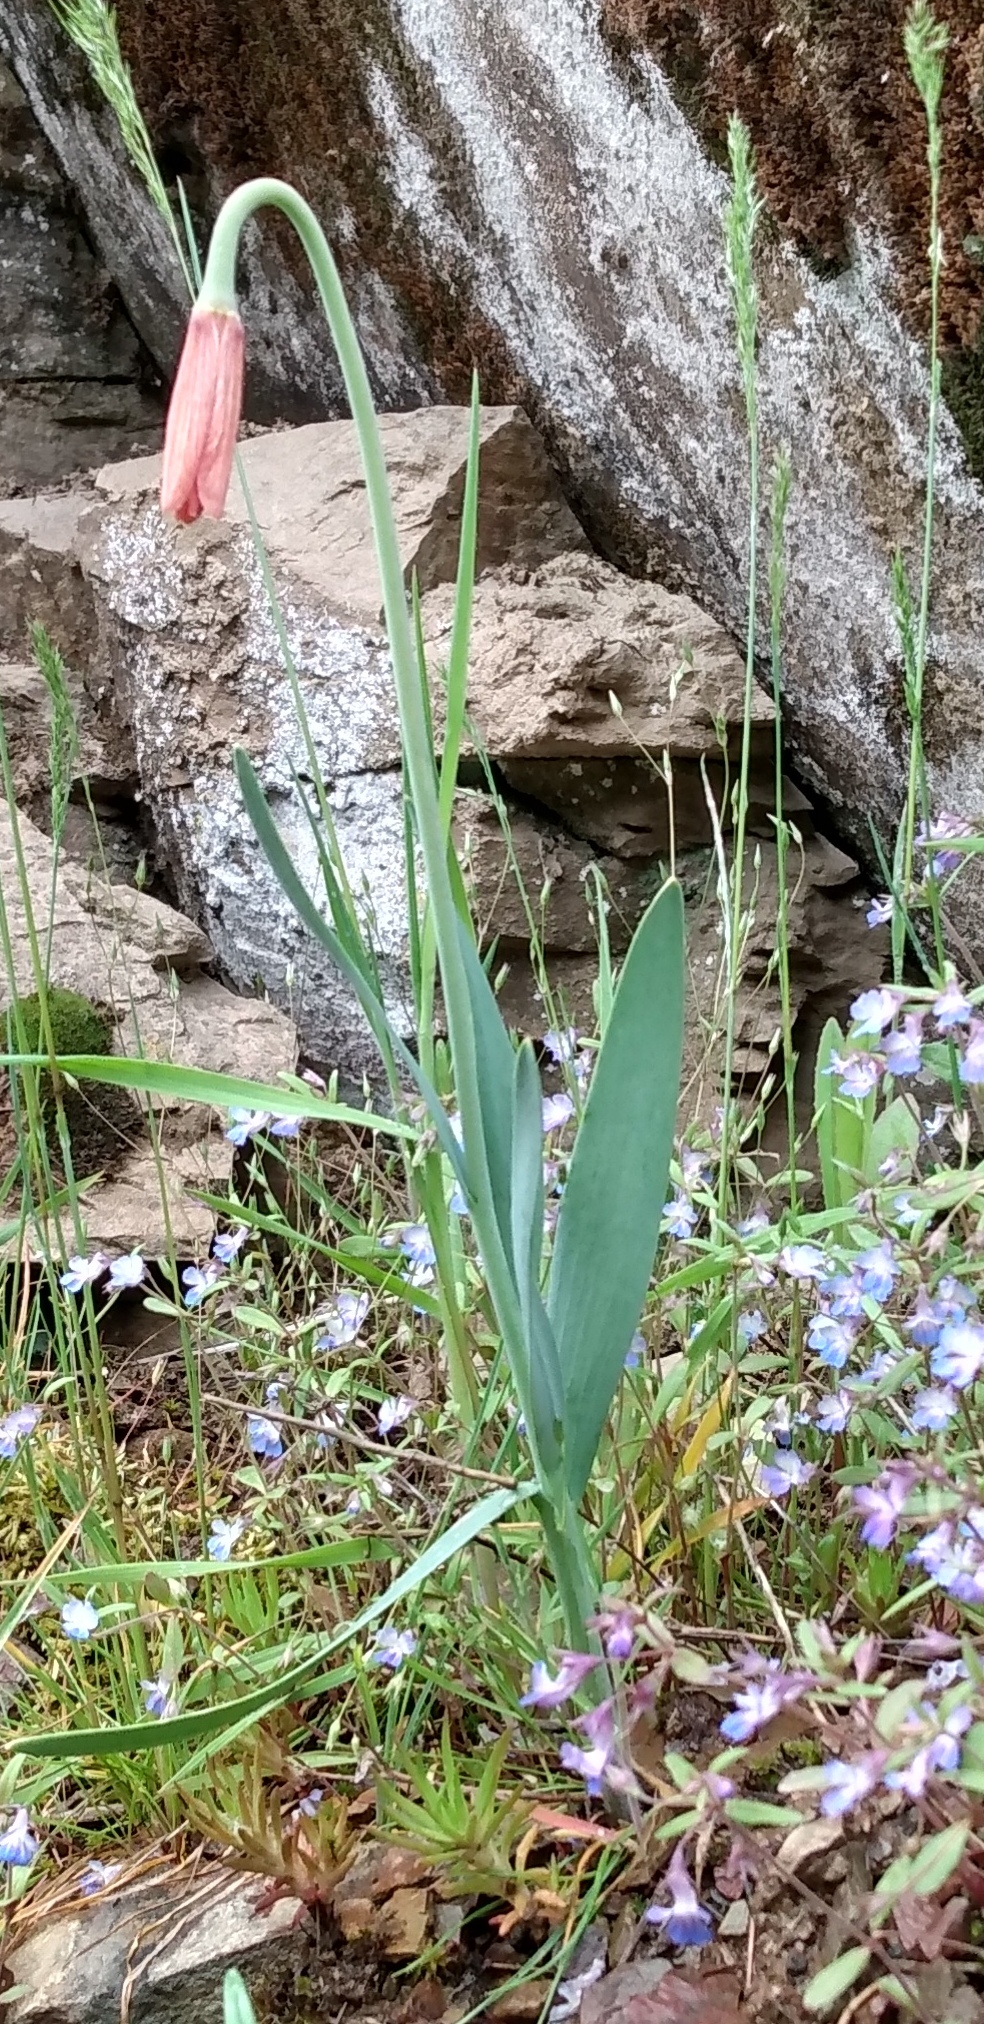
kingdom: Plantae
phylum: Tracheophyta
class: Liliopsida
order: Liliales
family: Liliaceae
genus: Fritillaria
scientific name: Fritillaria pudica
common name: Yellow fritillary
